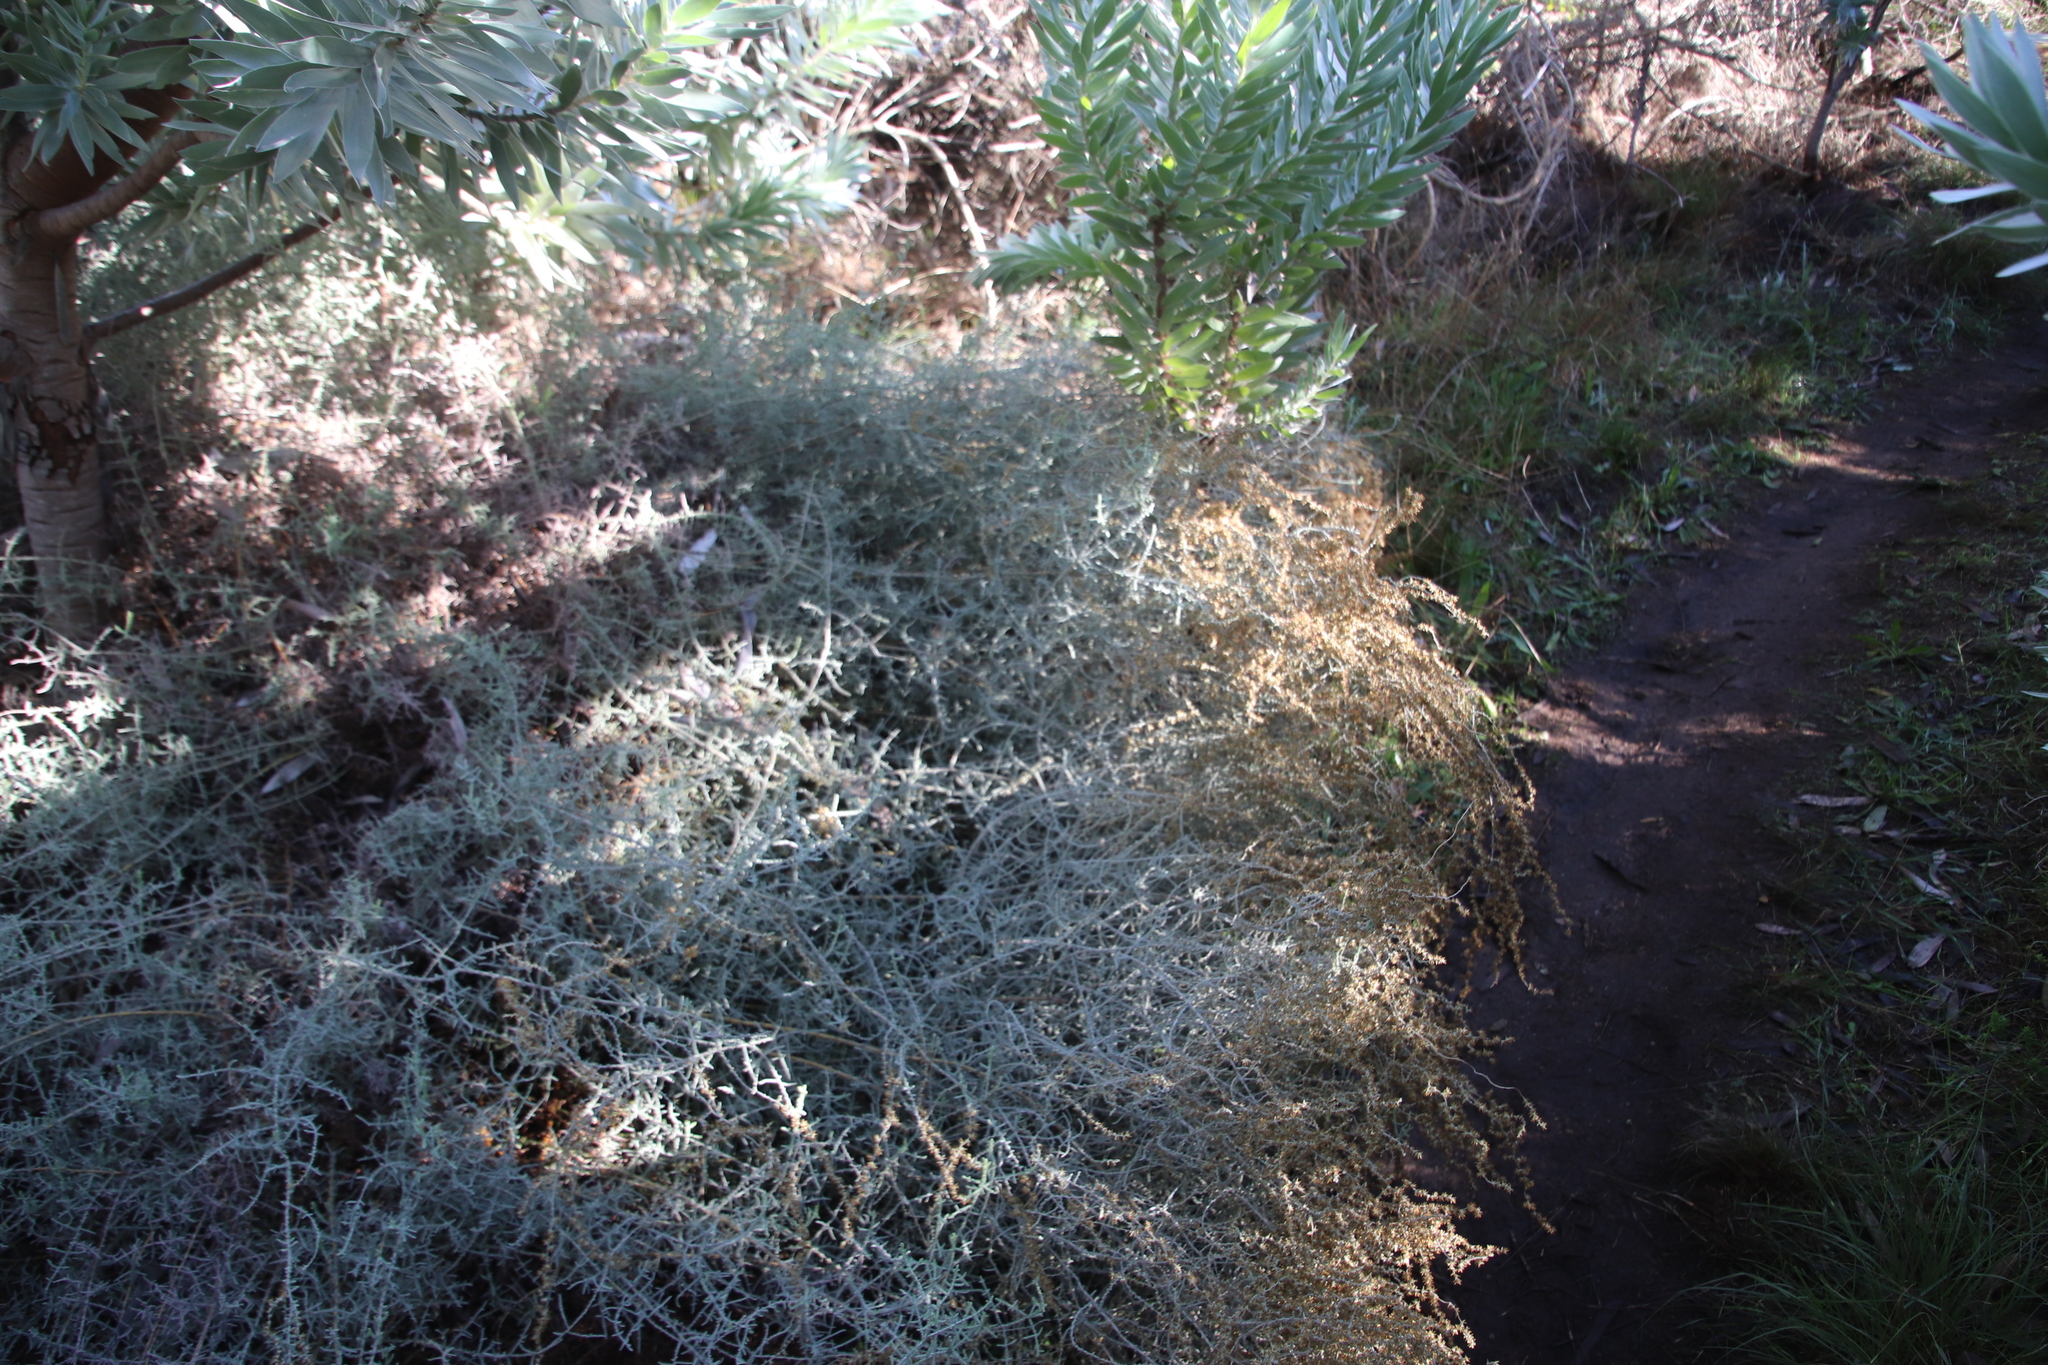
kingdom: Plantae
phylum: Tracheophyta
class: Magnoliopsida
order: Asterales
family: Asteraceae
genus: Seriphium
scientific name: Seriphium plumosum
